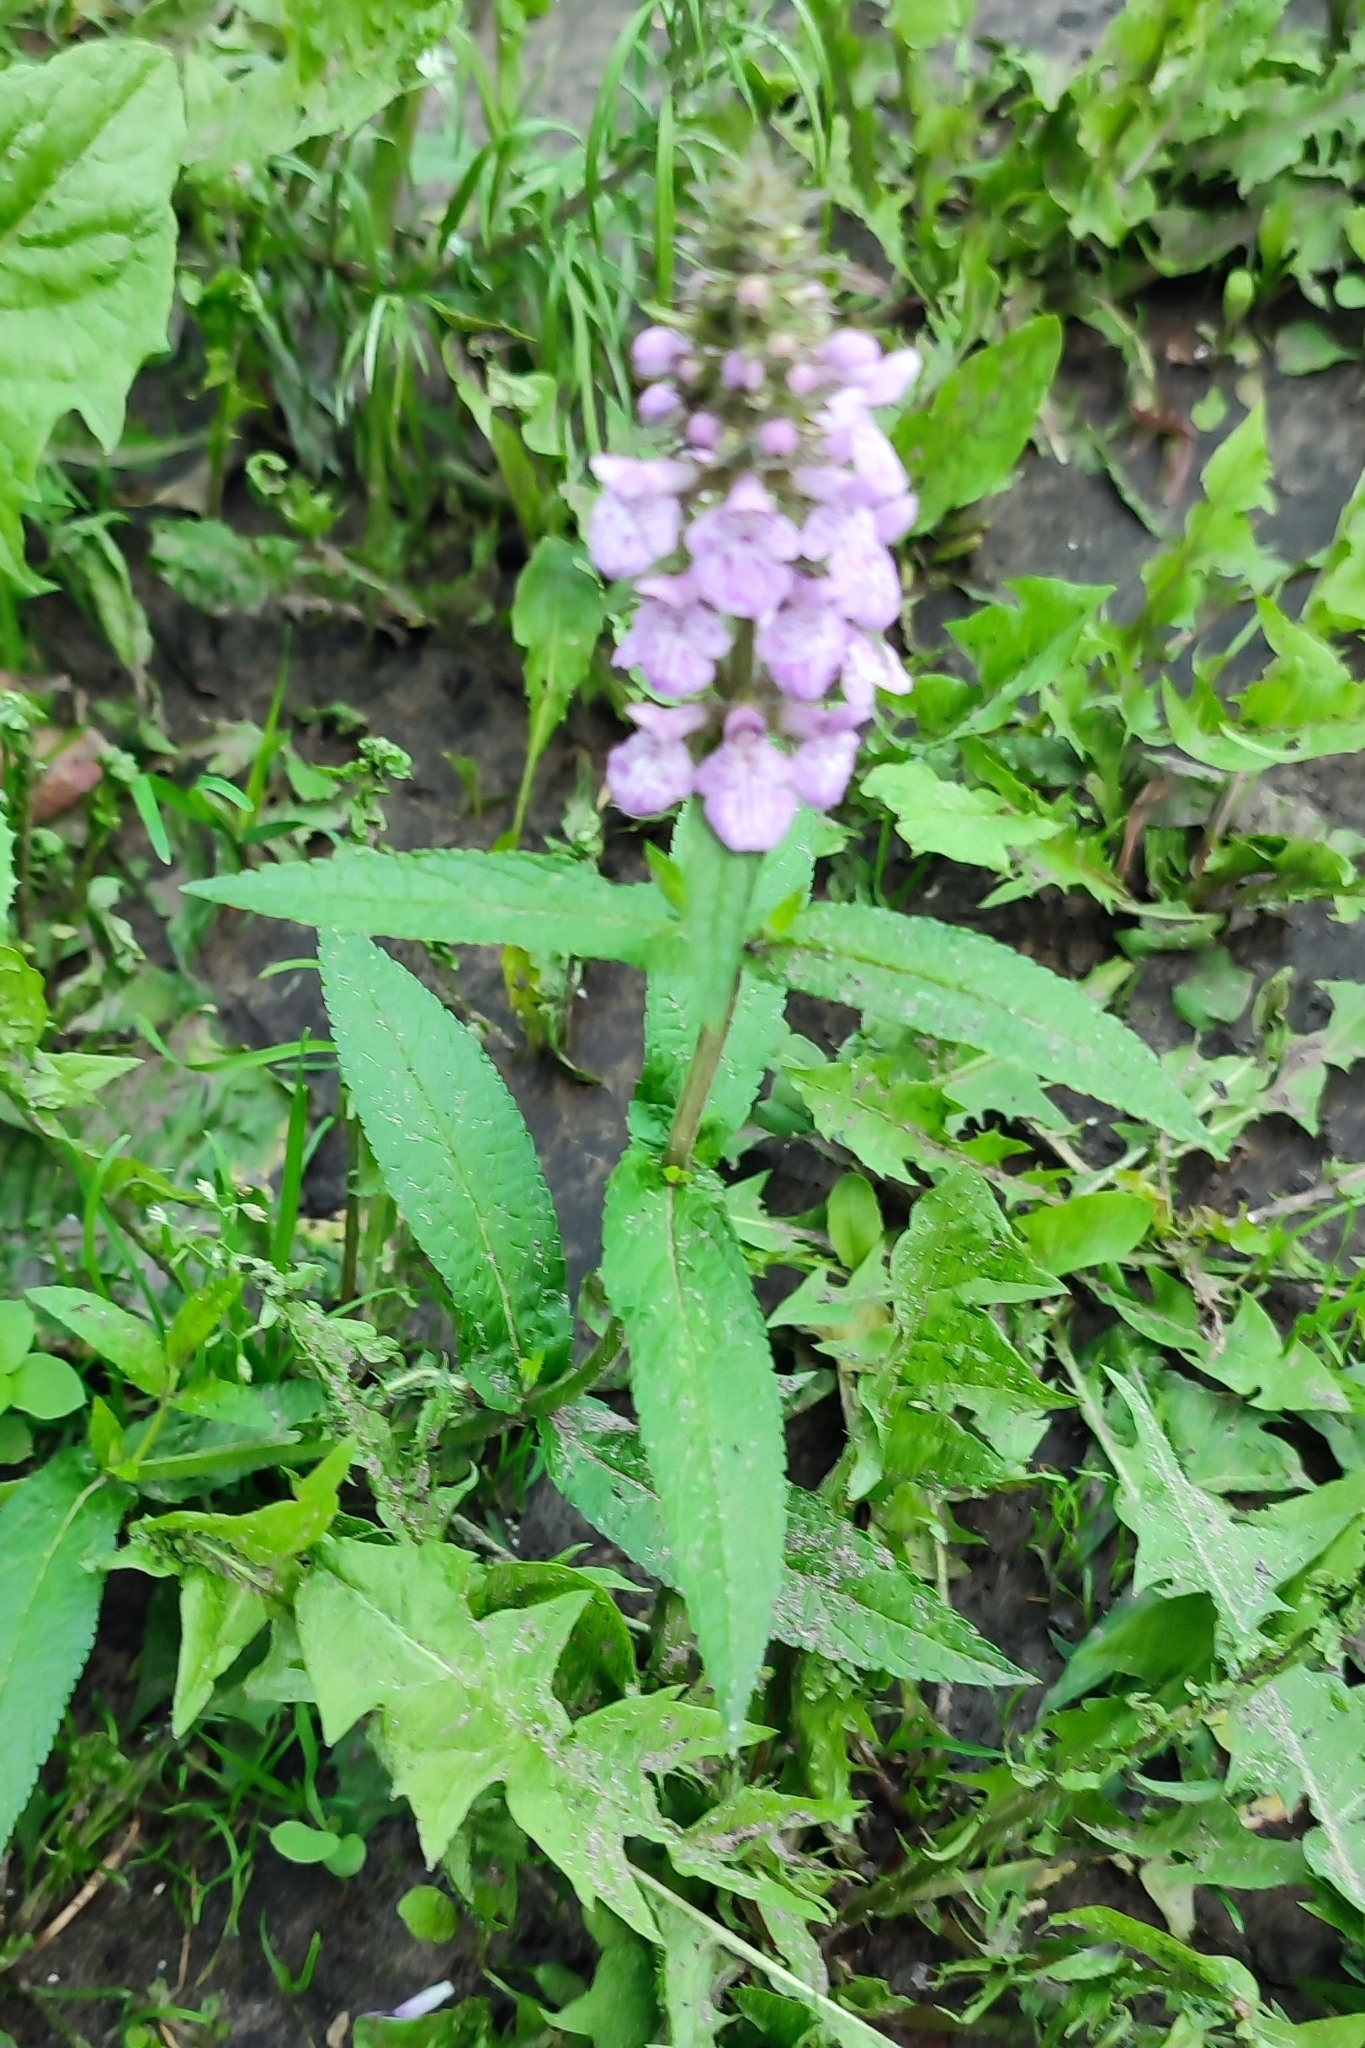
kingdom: Plantae
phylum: Tracheophyta
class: Magnoliopsida
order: Lamiales
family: Lamiaceae
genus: Stachys
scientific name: Stachys palustris
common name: Marsh woundwort
